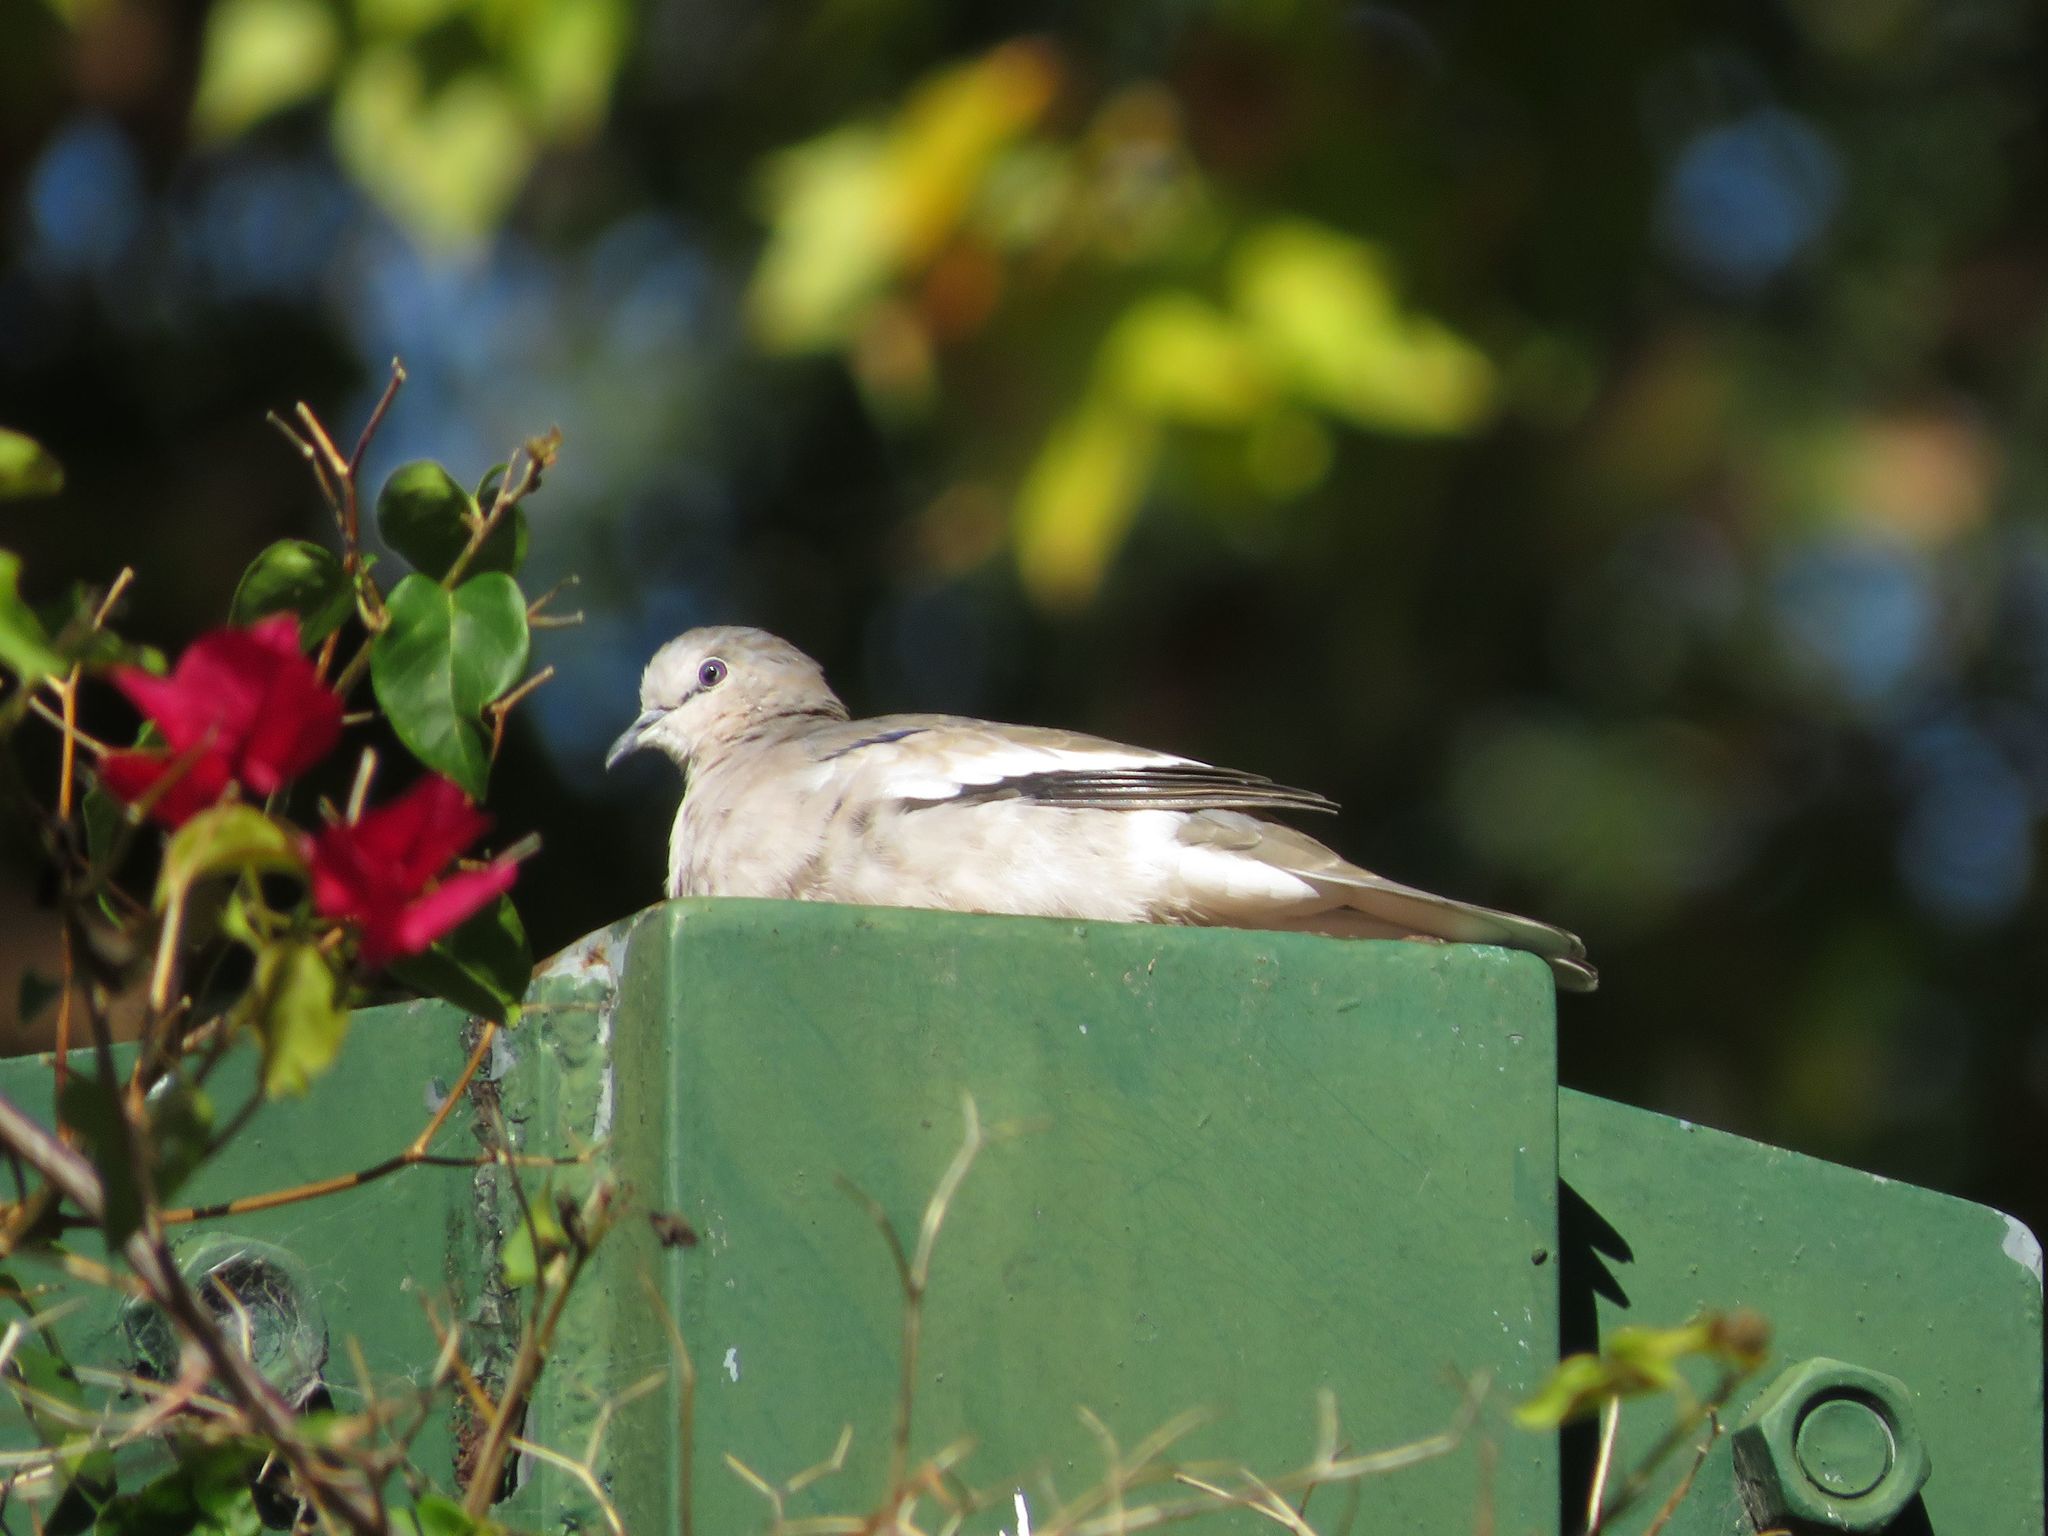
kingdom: Animalia
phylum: Chordata
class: Aves
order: Columbiformes
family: Columbidae
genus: Columbina
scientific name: Columbina picui
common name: Picui ground dove
